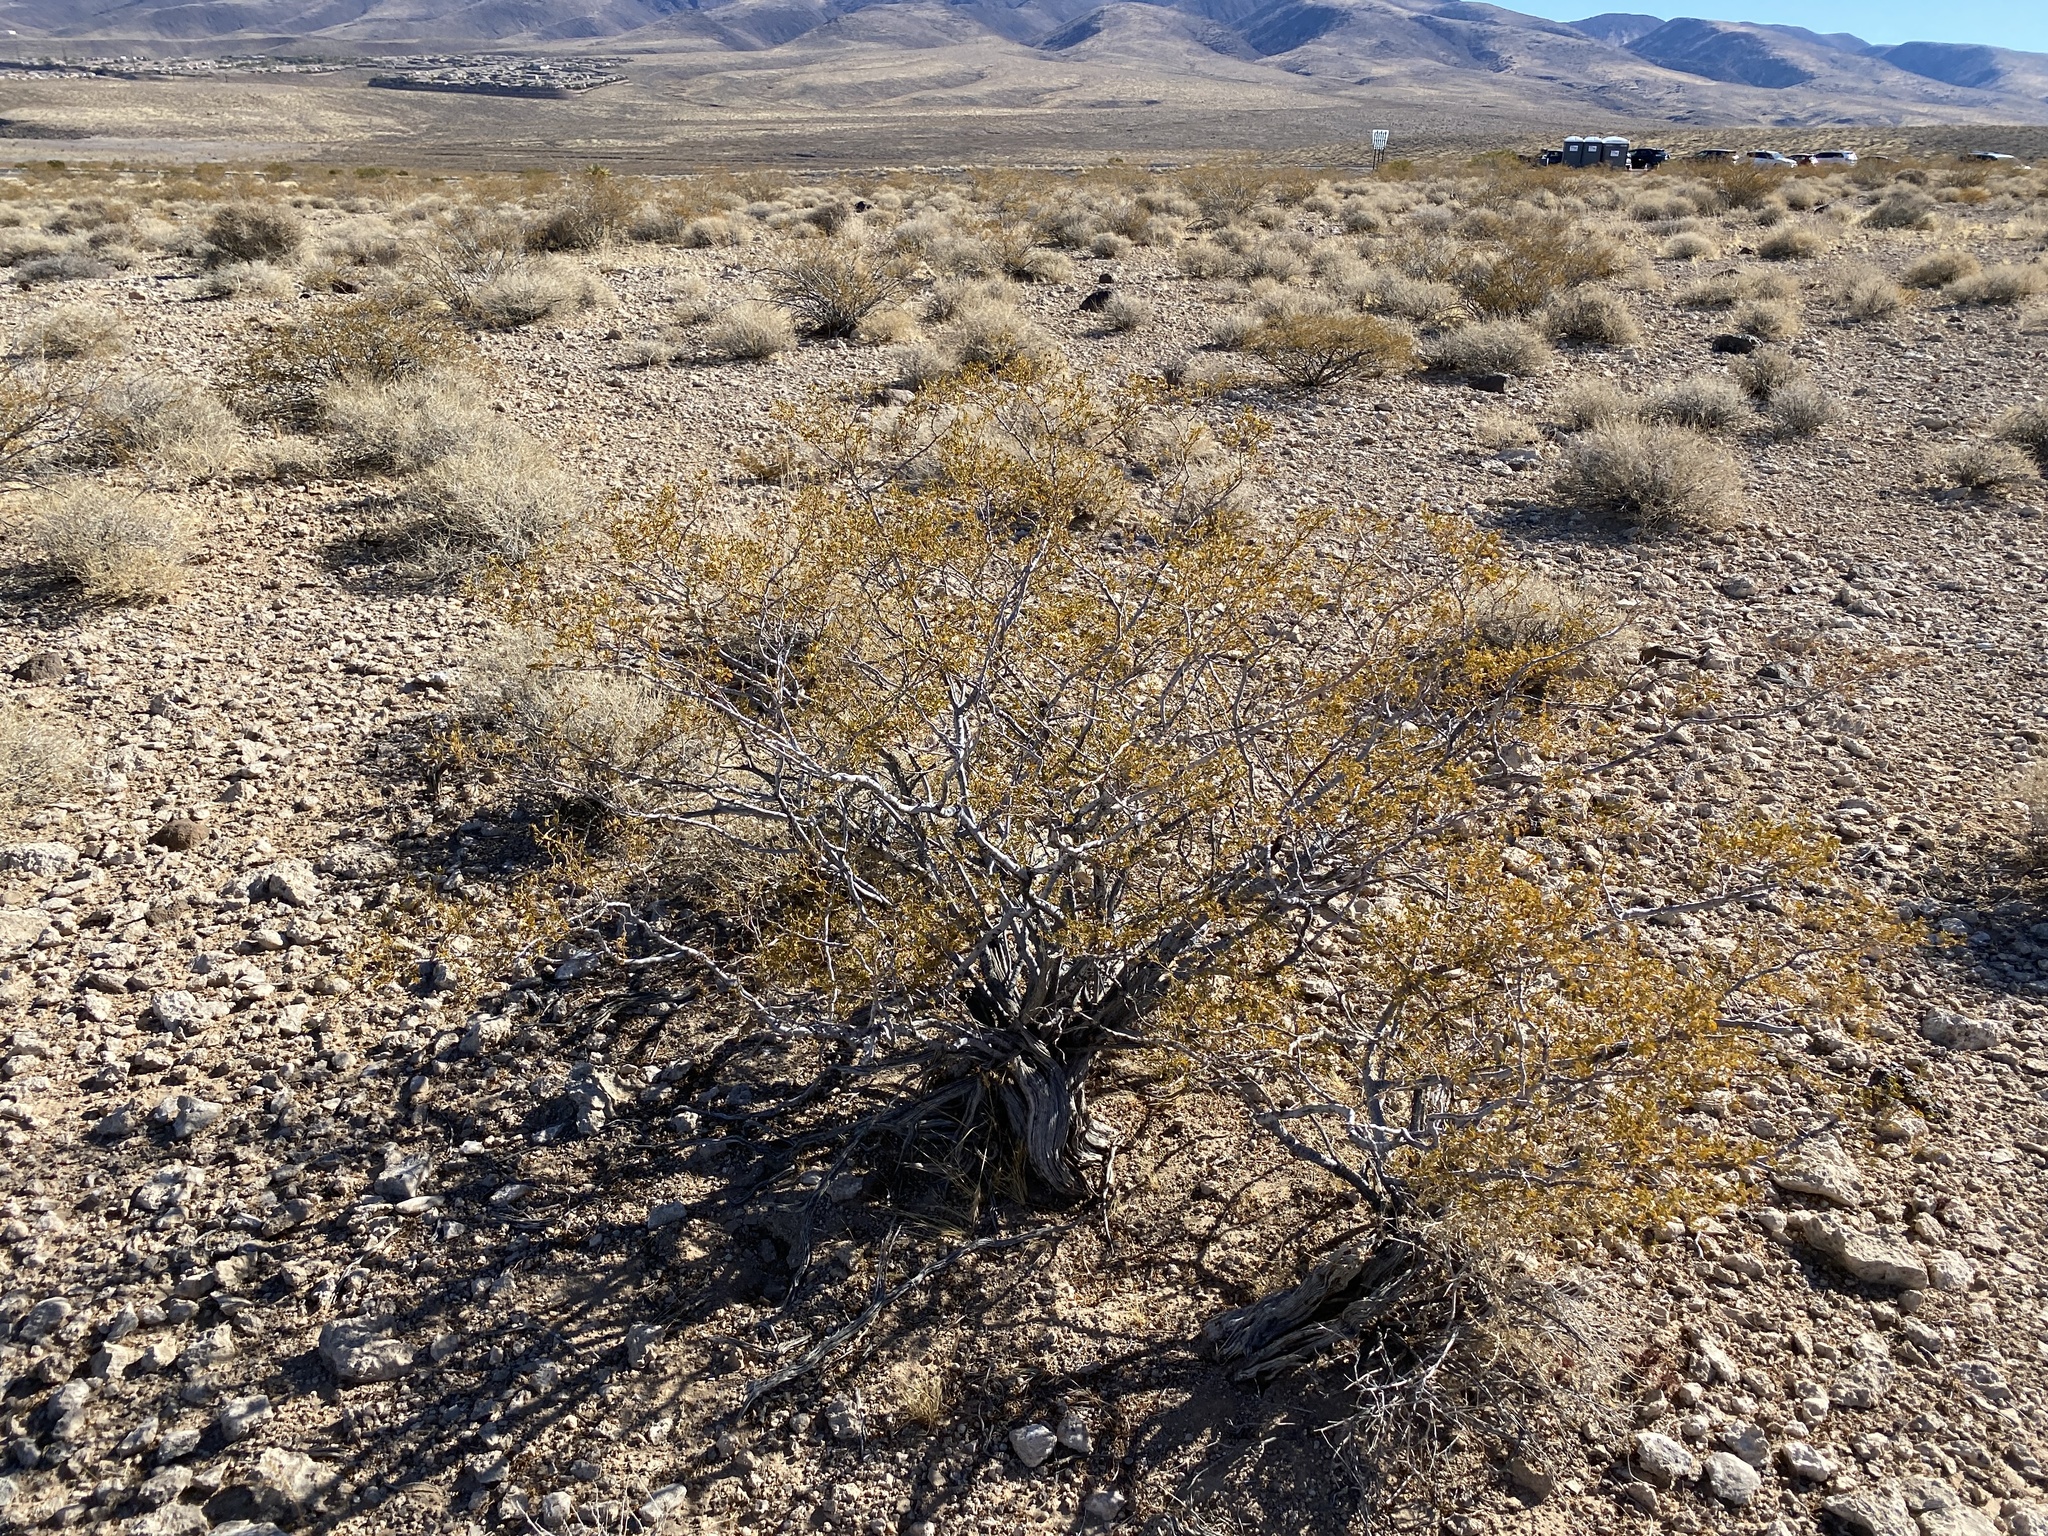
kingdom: Plantae
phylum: Tracheophyta
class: Magnoliopsida
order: Zygophyllales
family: Zygophyllaceae
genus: Larrea
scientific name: Larrea tridentata
